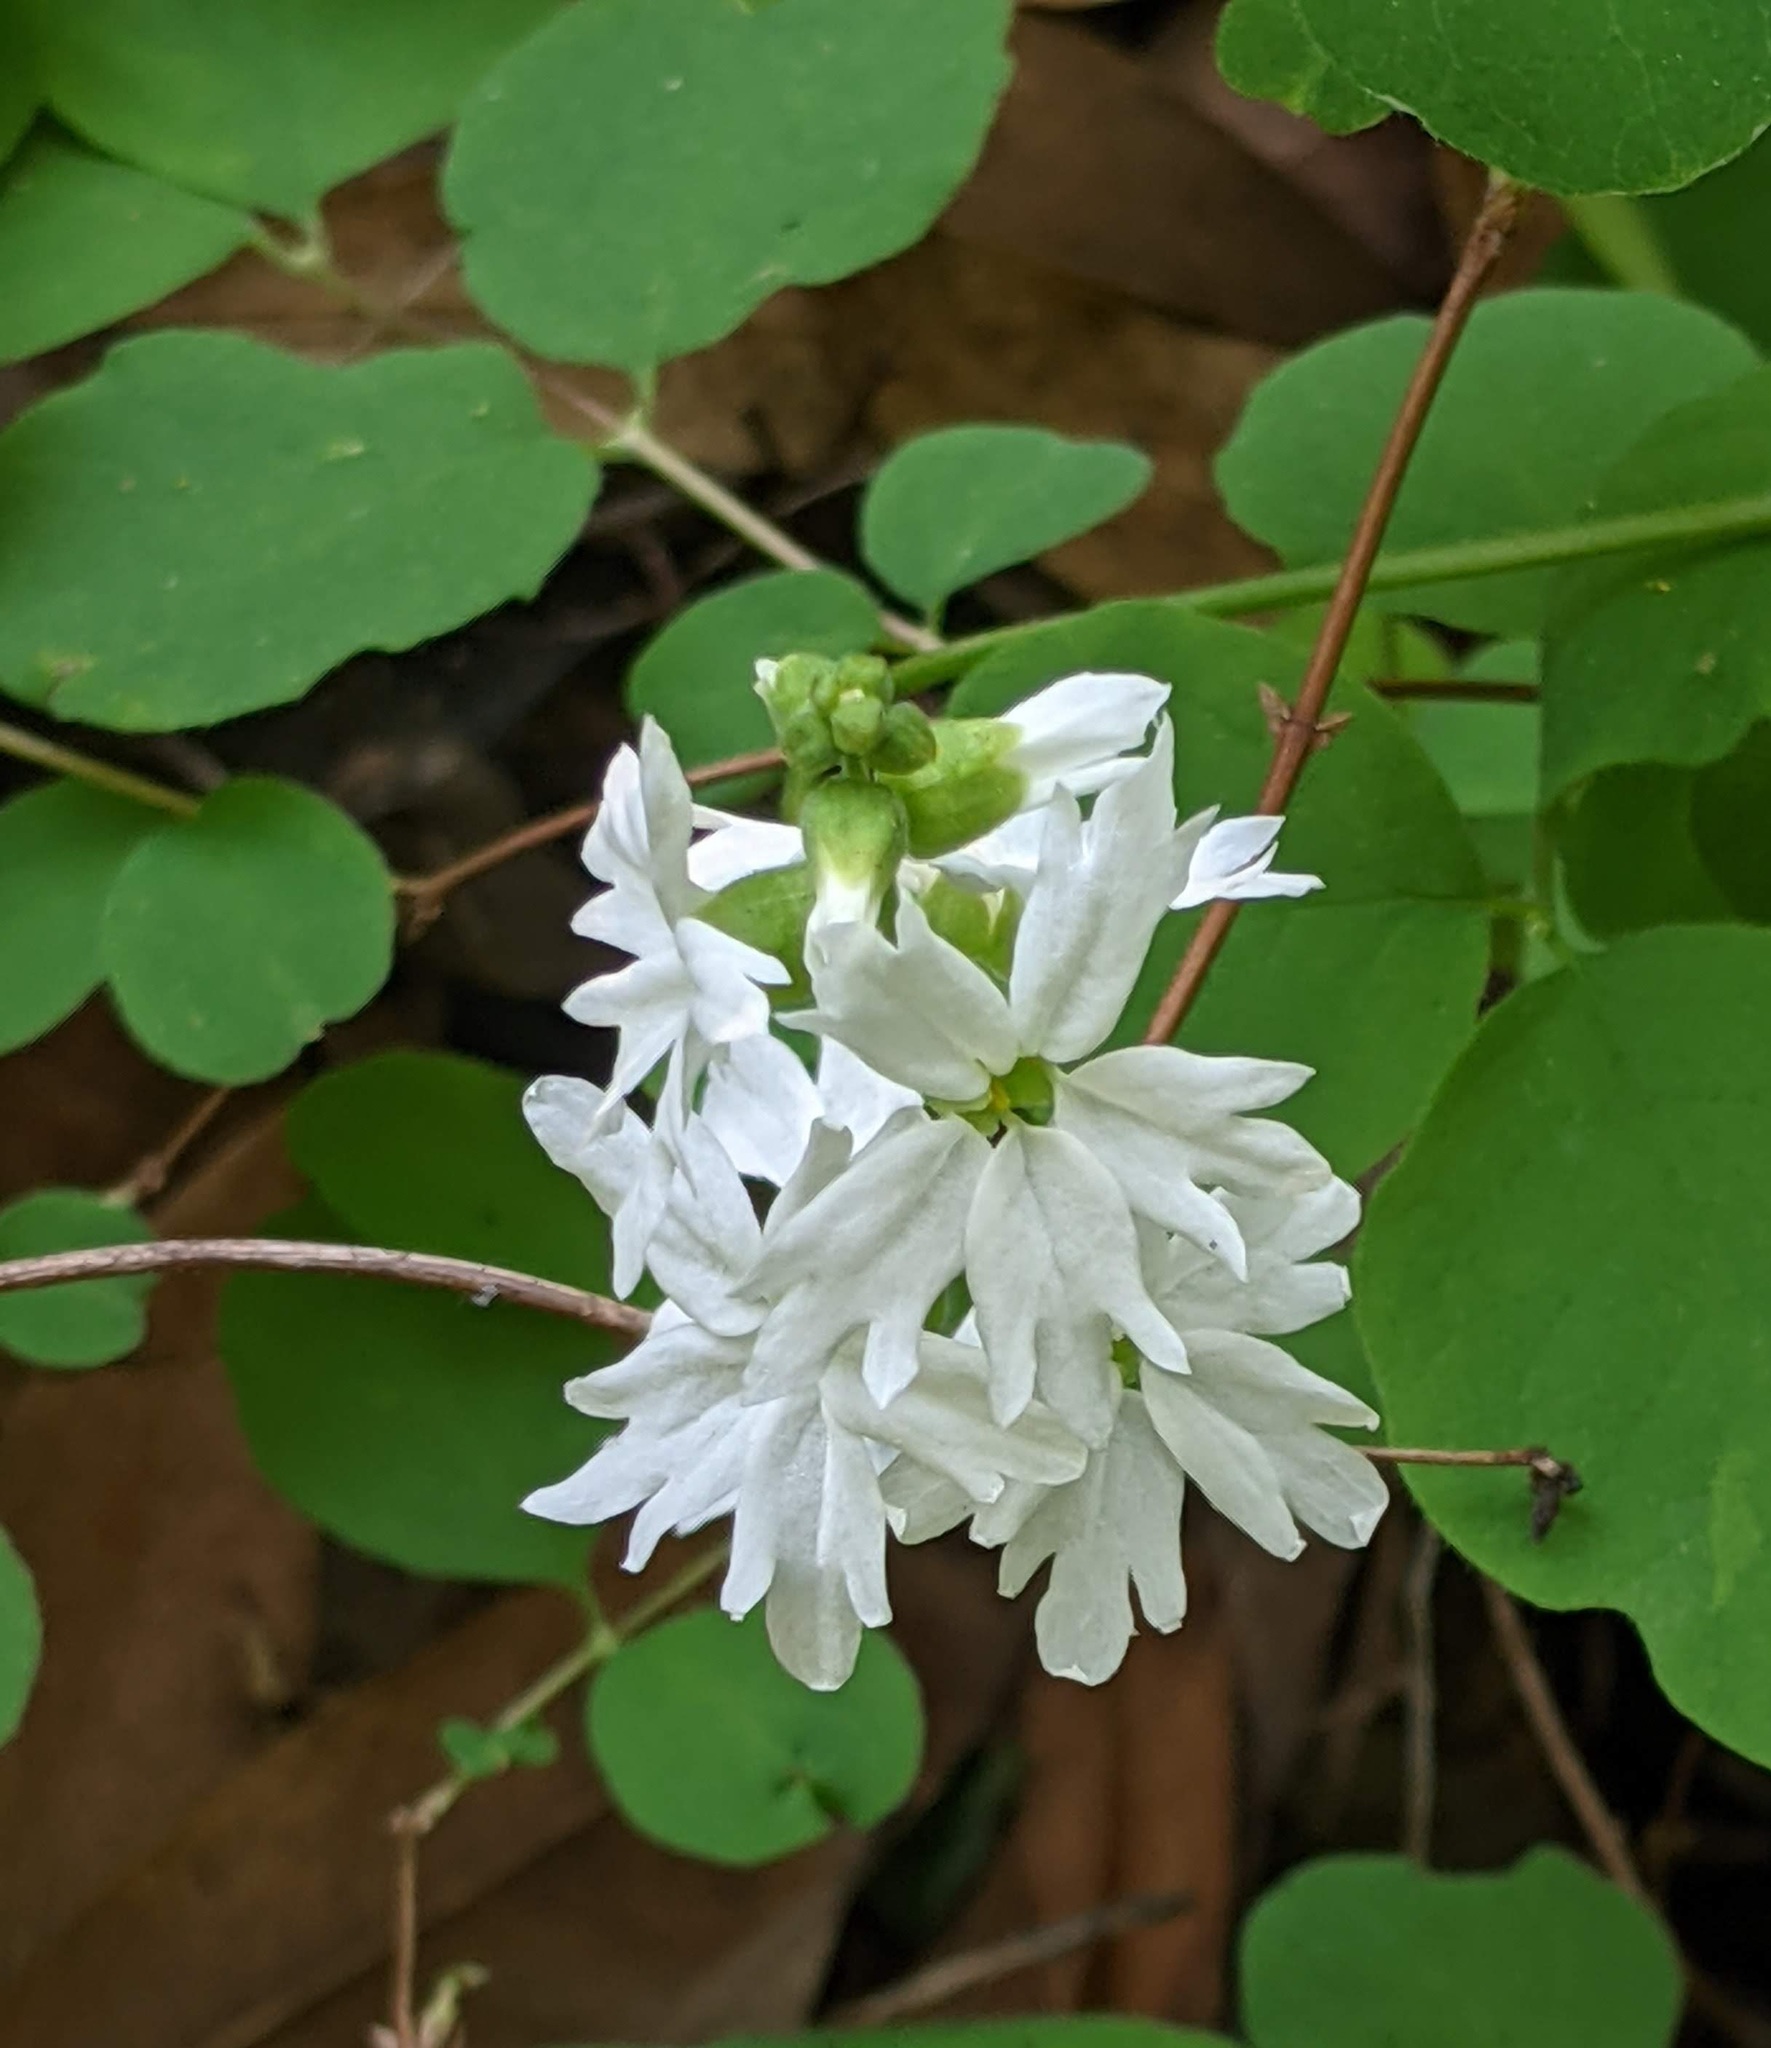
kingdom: Plantae
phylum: Tracheophyta
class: Magnoliopsida
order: Saxifragales
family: Saxifragaceae
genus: Lithophragma
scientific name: Lithophragma heterophyllum
